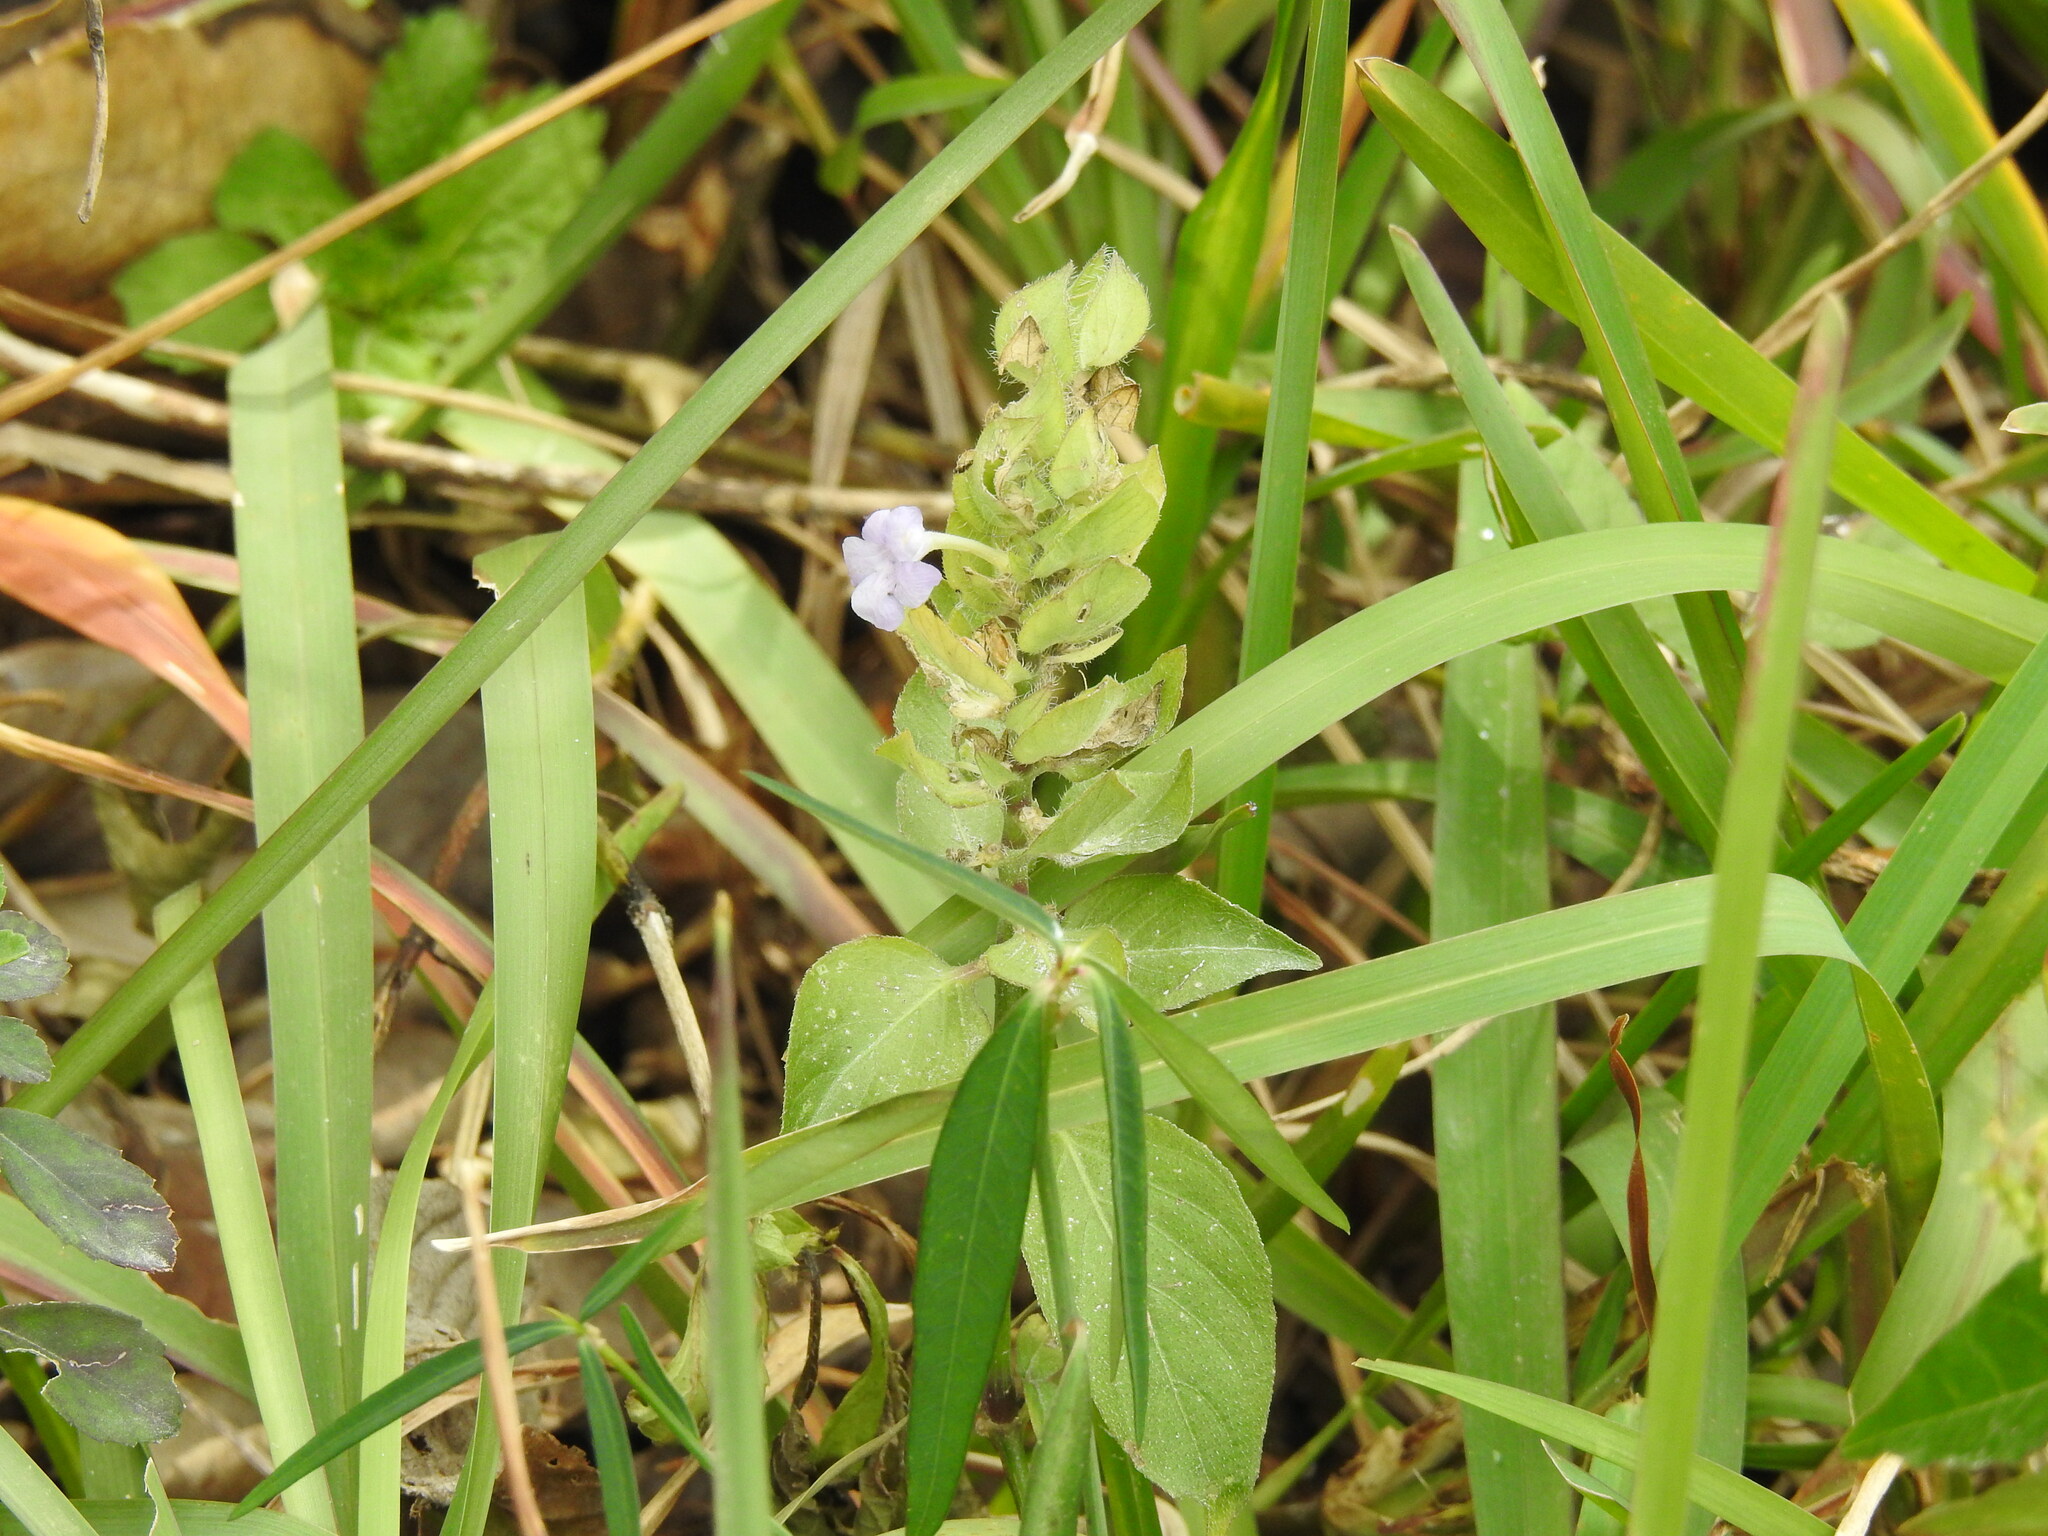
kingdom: Plantae
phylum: Tracheophyta
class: Magnoliopsida
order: Lamiales
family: Acanthaceae
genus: Ruellia
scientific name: Ruellia blechum
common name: Browne's blechum
